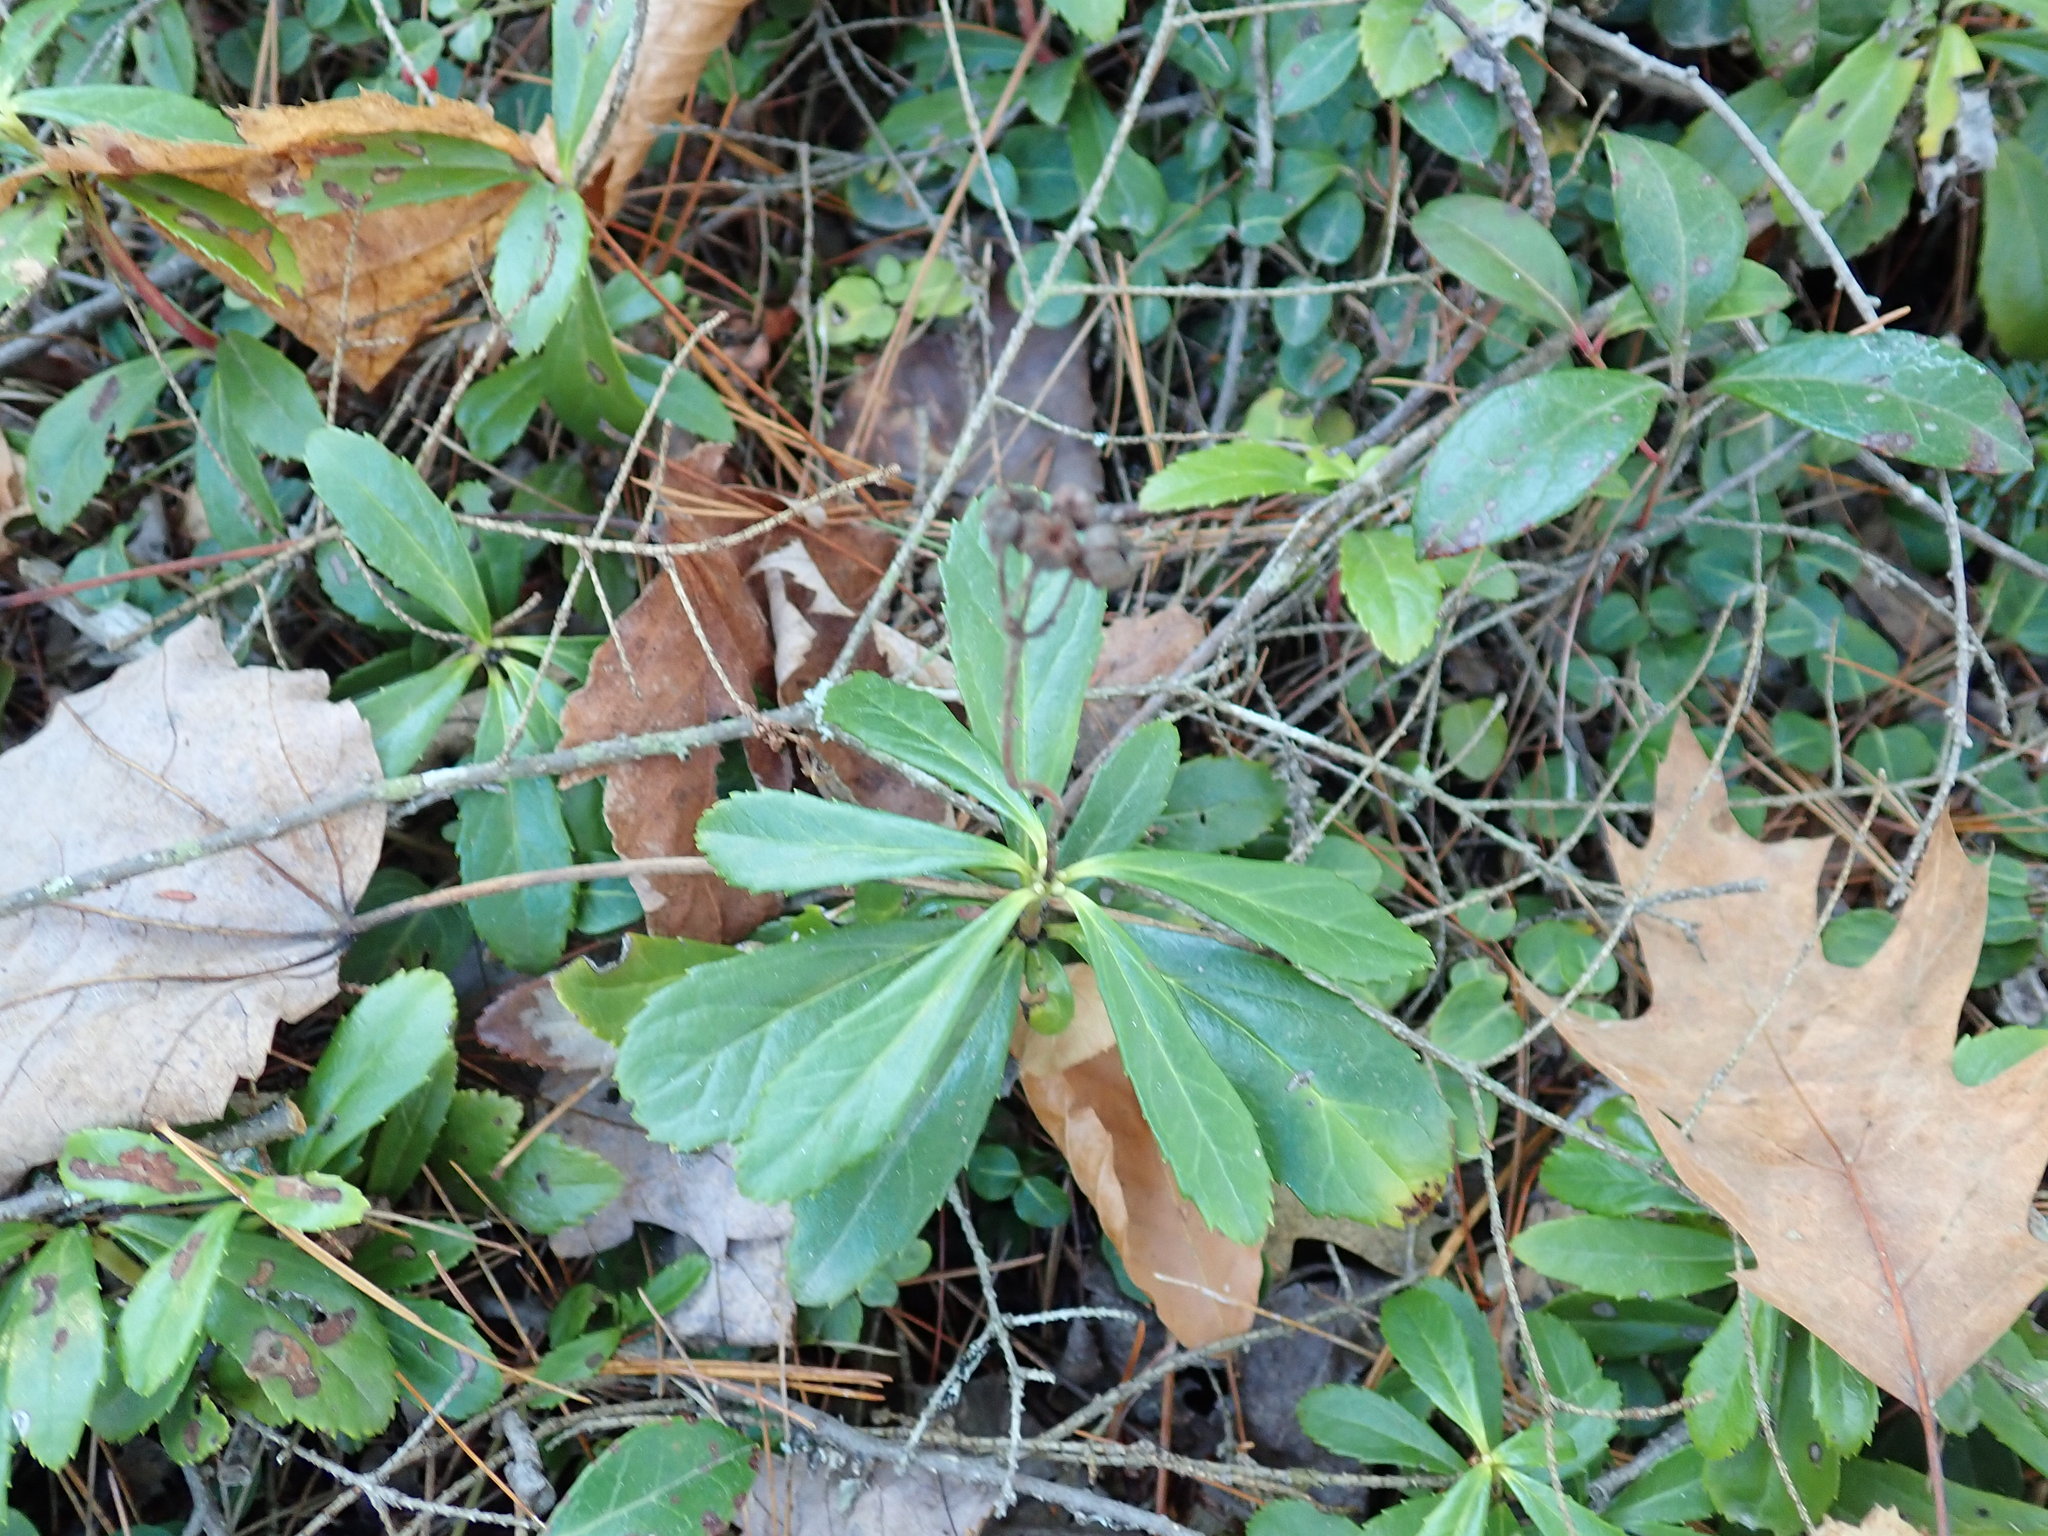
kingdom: Plantae
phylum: Tracheophyta
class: Magnoliopsida
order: Ericales
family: Ericaceae
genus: Chimaphila
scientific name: Chimaphila umbellata
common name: Pipsissewa
